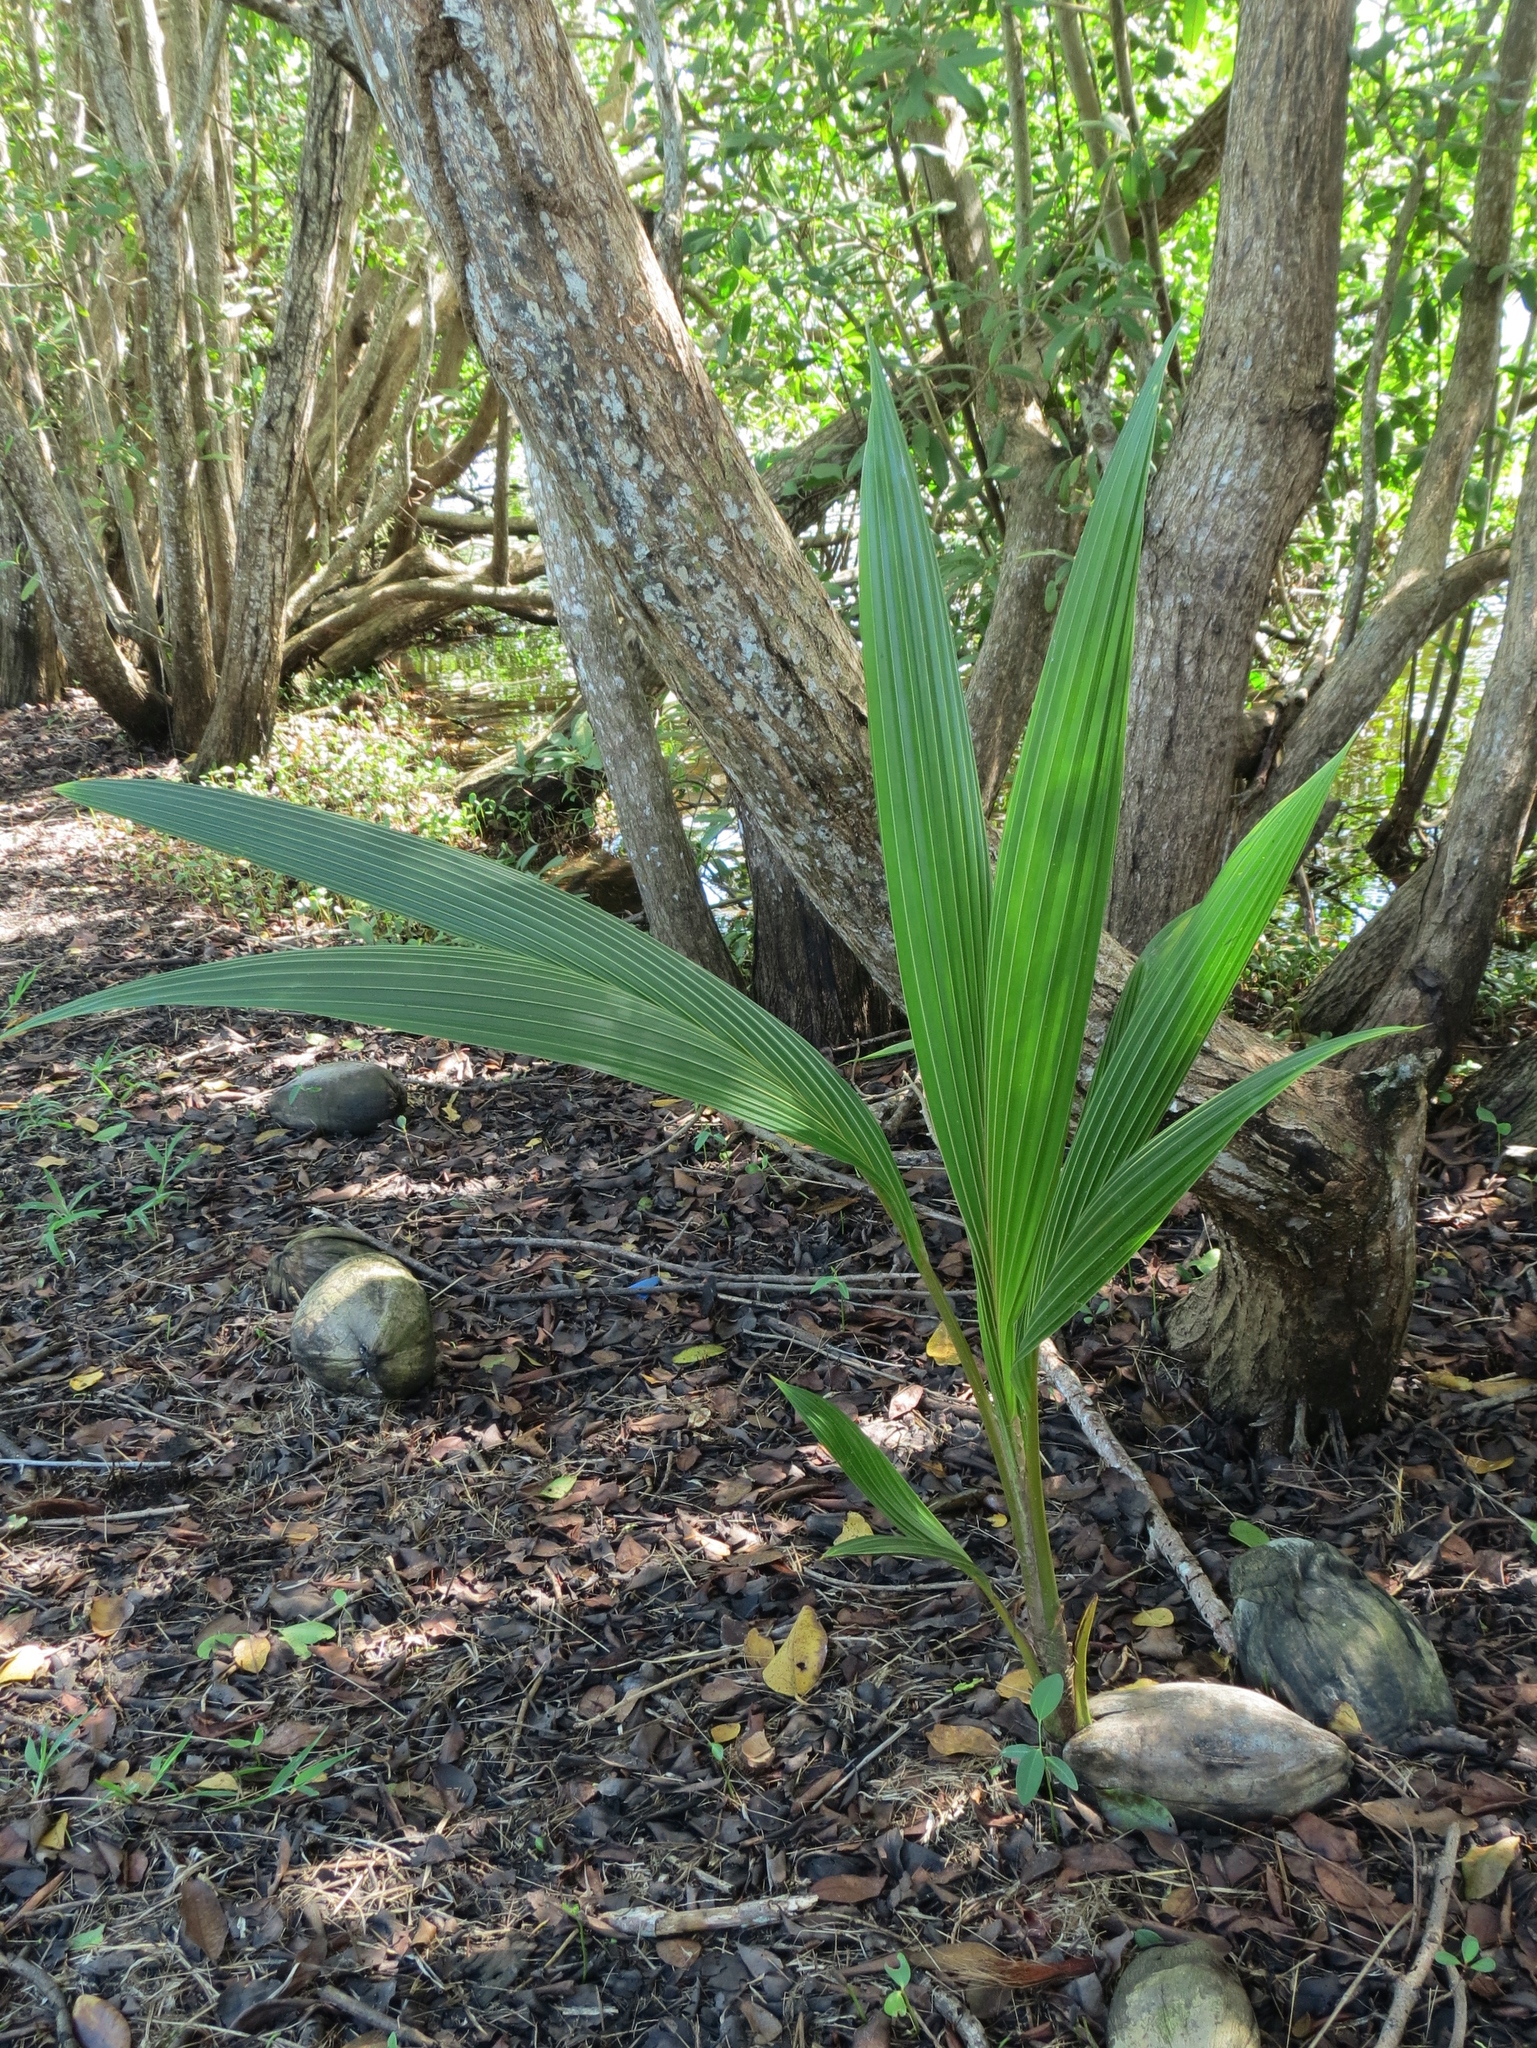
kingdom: Plantae
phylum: Tracheophyta
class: Liliopsida
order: Arecales
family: Arecaceae
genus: Cocos
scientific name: Cocos nucifera
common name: Coconut palm
